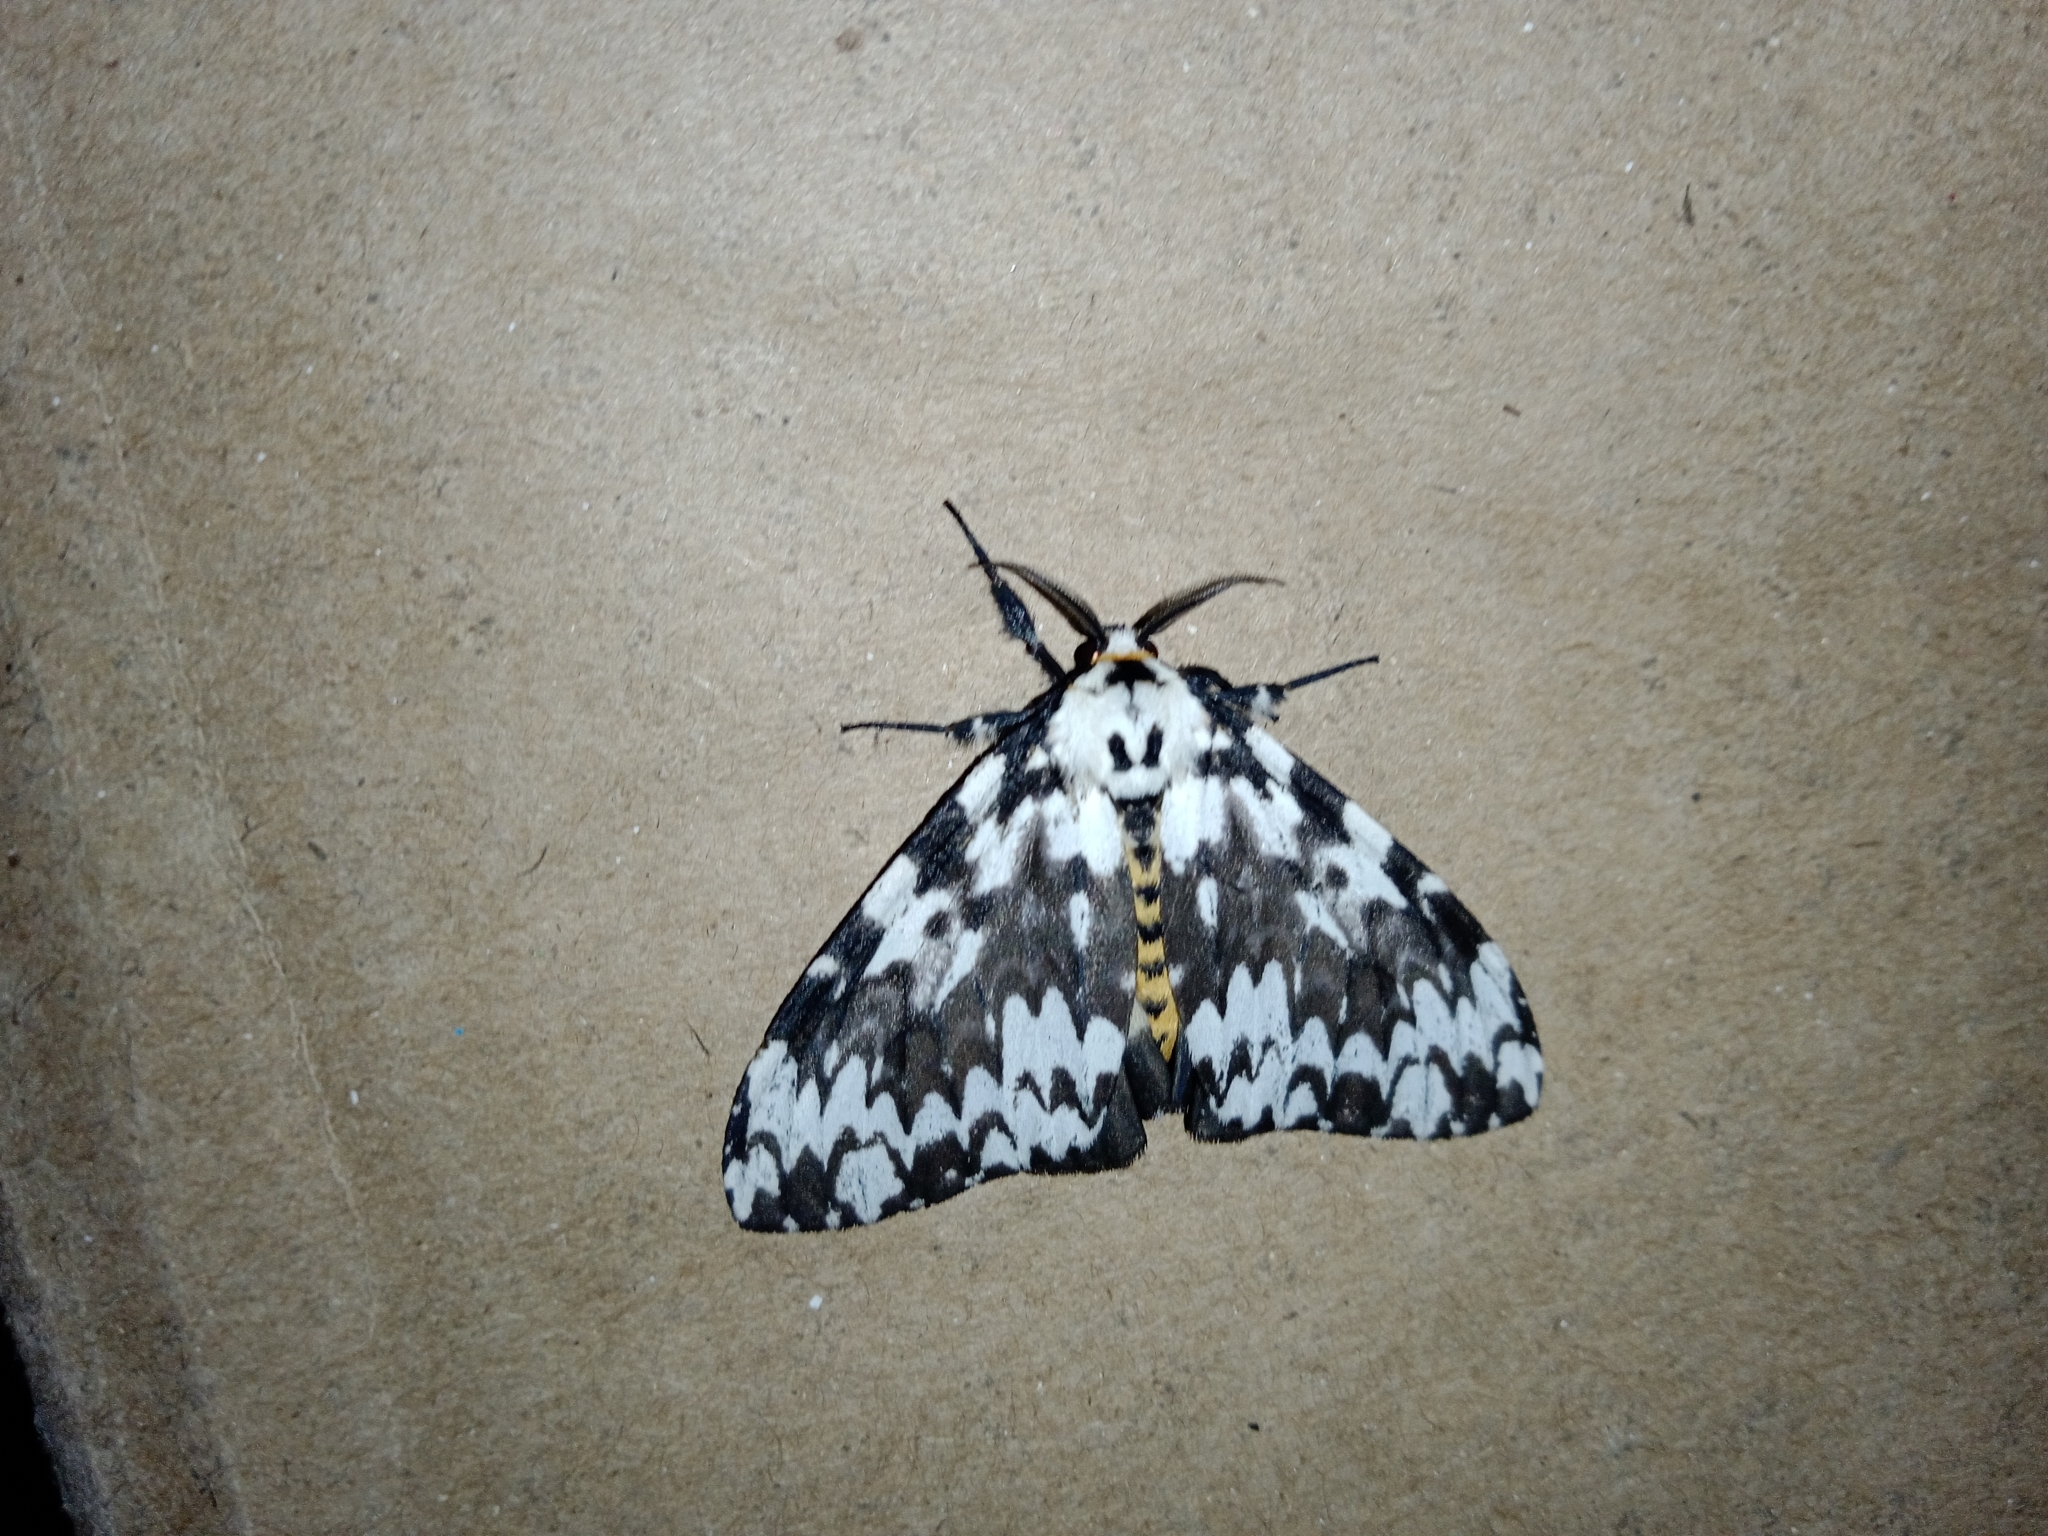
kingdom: Animalia
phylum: Arthropoda
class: Insecta
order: Lepidoptera
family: Erebidae
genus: Lymantria
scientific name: Lymantria marginata
